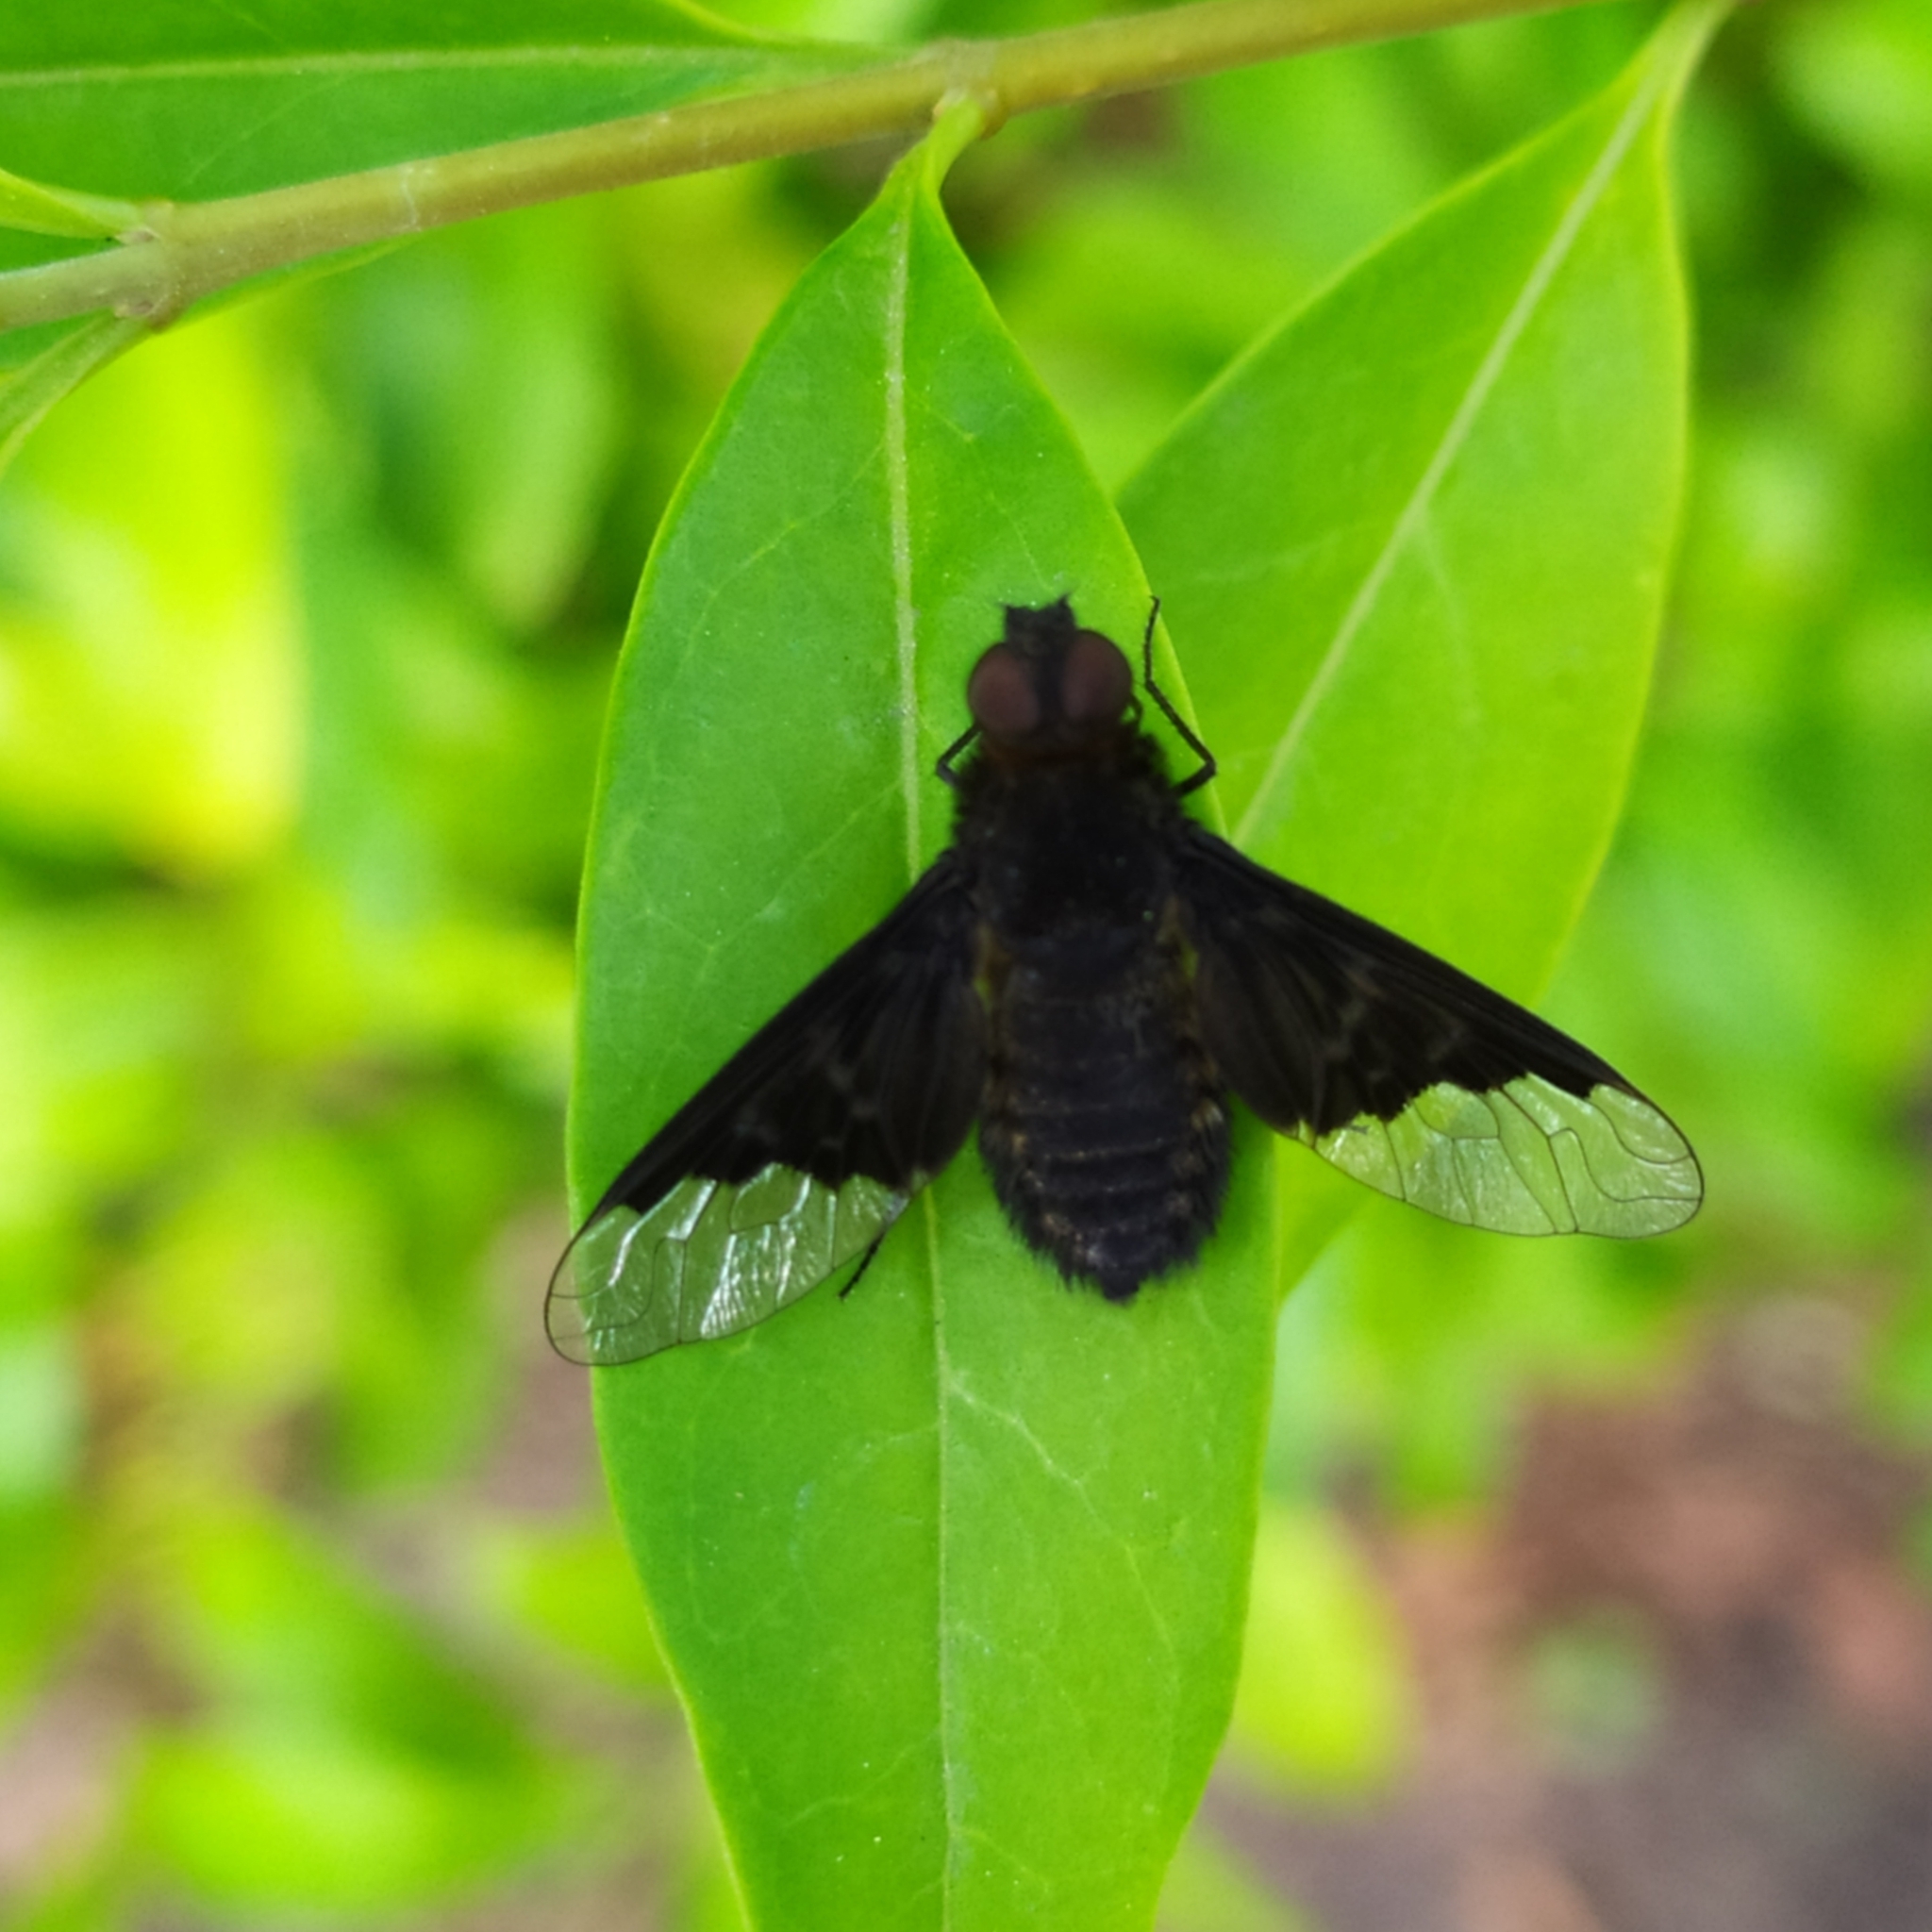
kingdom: Animalia
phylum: Arthropoda
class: Insecta
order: Diptera
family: Bombyliidae
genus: Hemipenthes
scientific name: Hemipenthes morio
